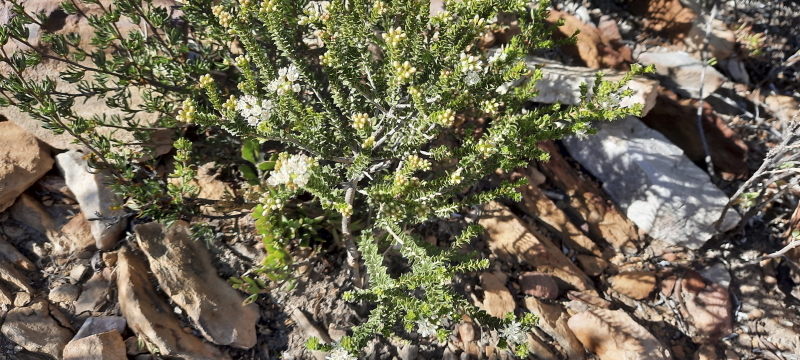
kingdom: Plantae
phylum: Tracheophyta
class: Magnoliopsida
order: Sapindales
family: Rutaceae
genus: Agathosma
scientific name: Agathosma recurvifolia
